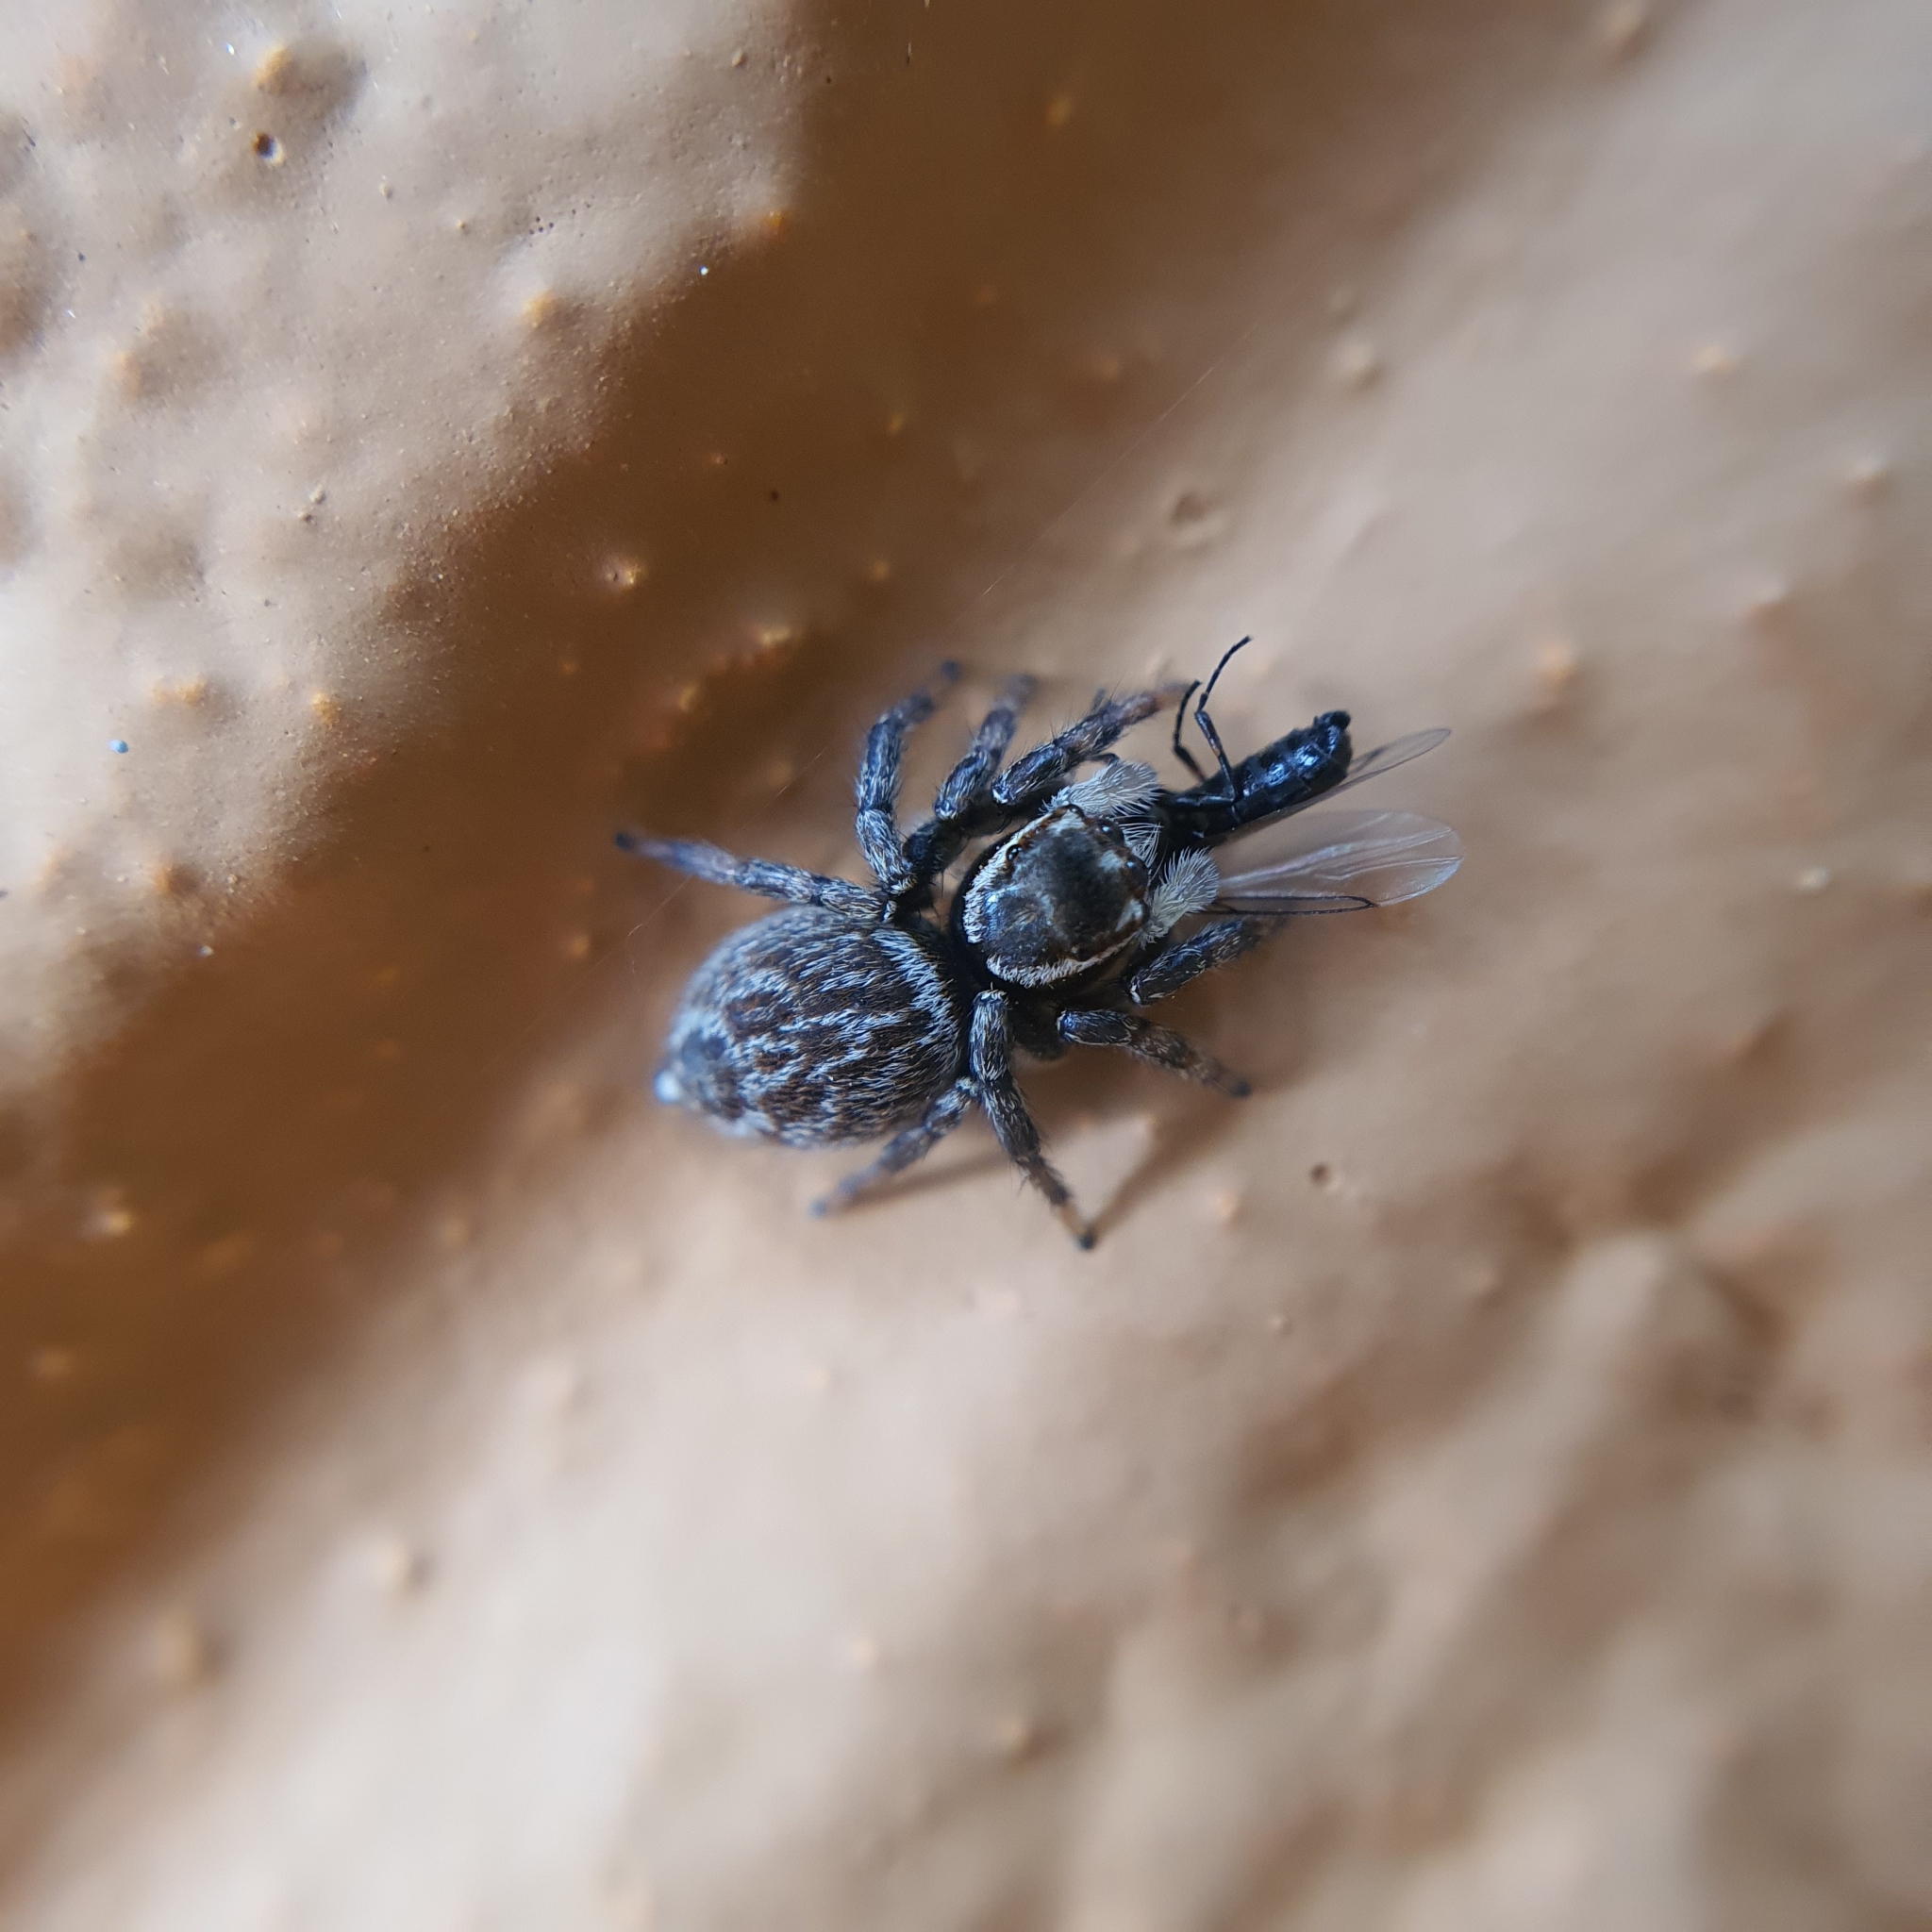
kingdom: Animalia
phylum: Arthropoda
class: Arachnida
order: Araneae
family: Salticidae
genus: Maratus
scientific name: Maratus griseus
